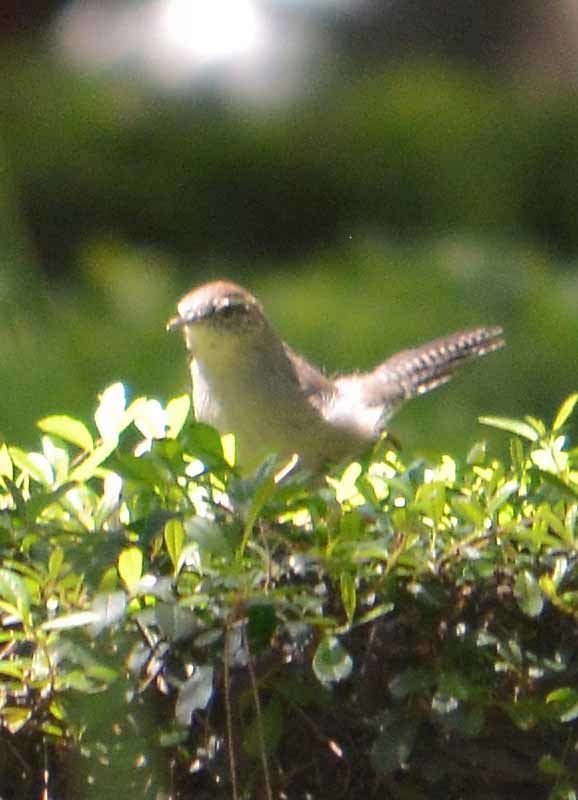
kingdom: Animalia
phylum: Chordata
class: Aves
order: Passeriformes
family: Troglodytidae
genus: Thryomanes
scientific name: Thryomanes bewickii
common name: Bewick's wren
